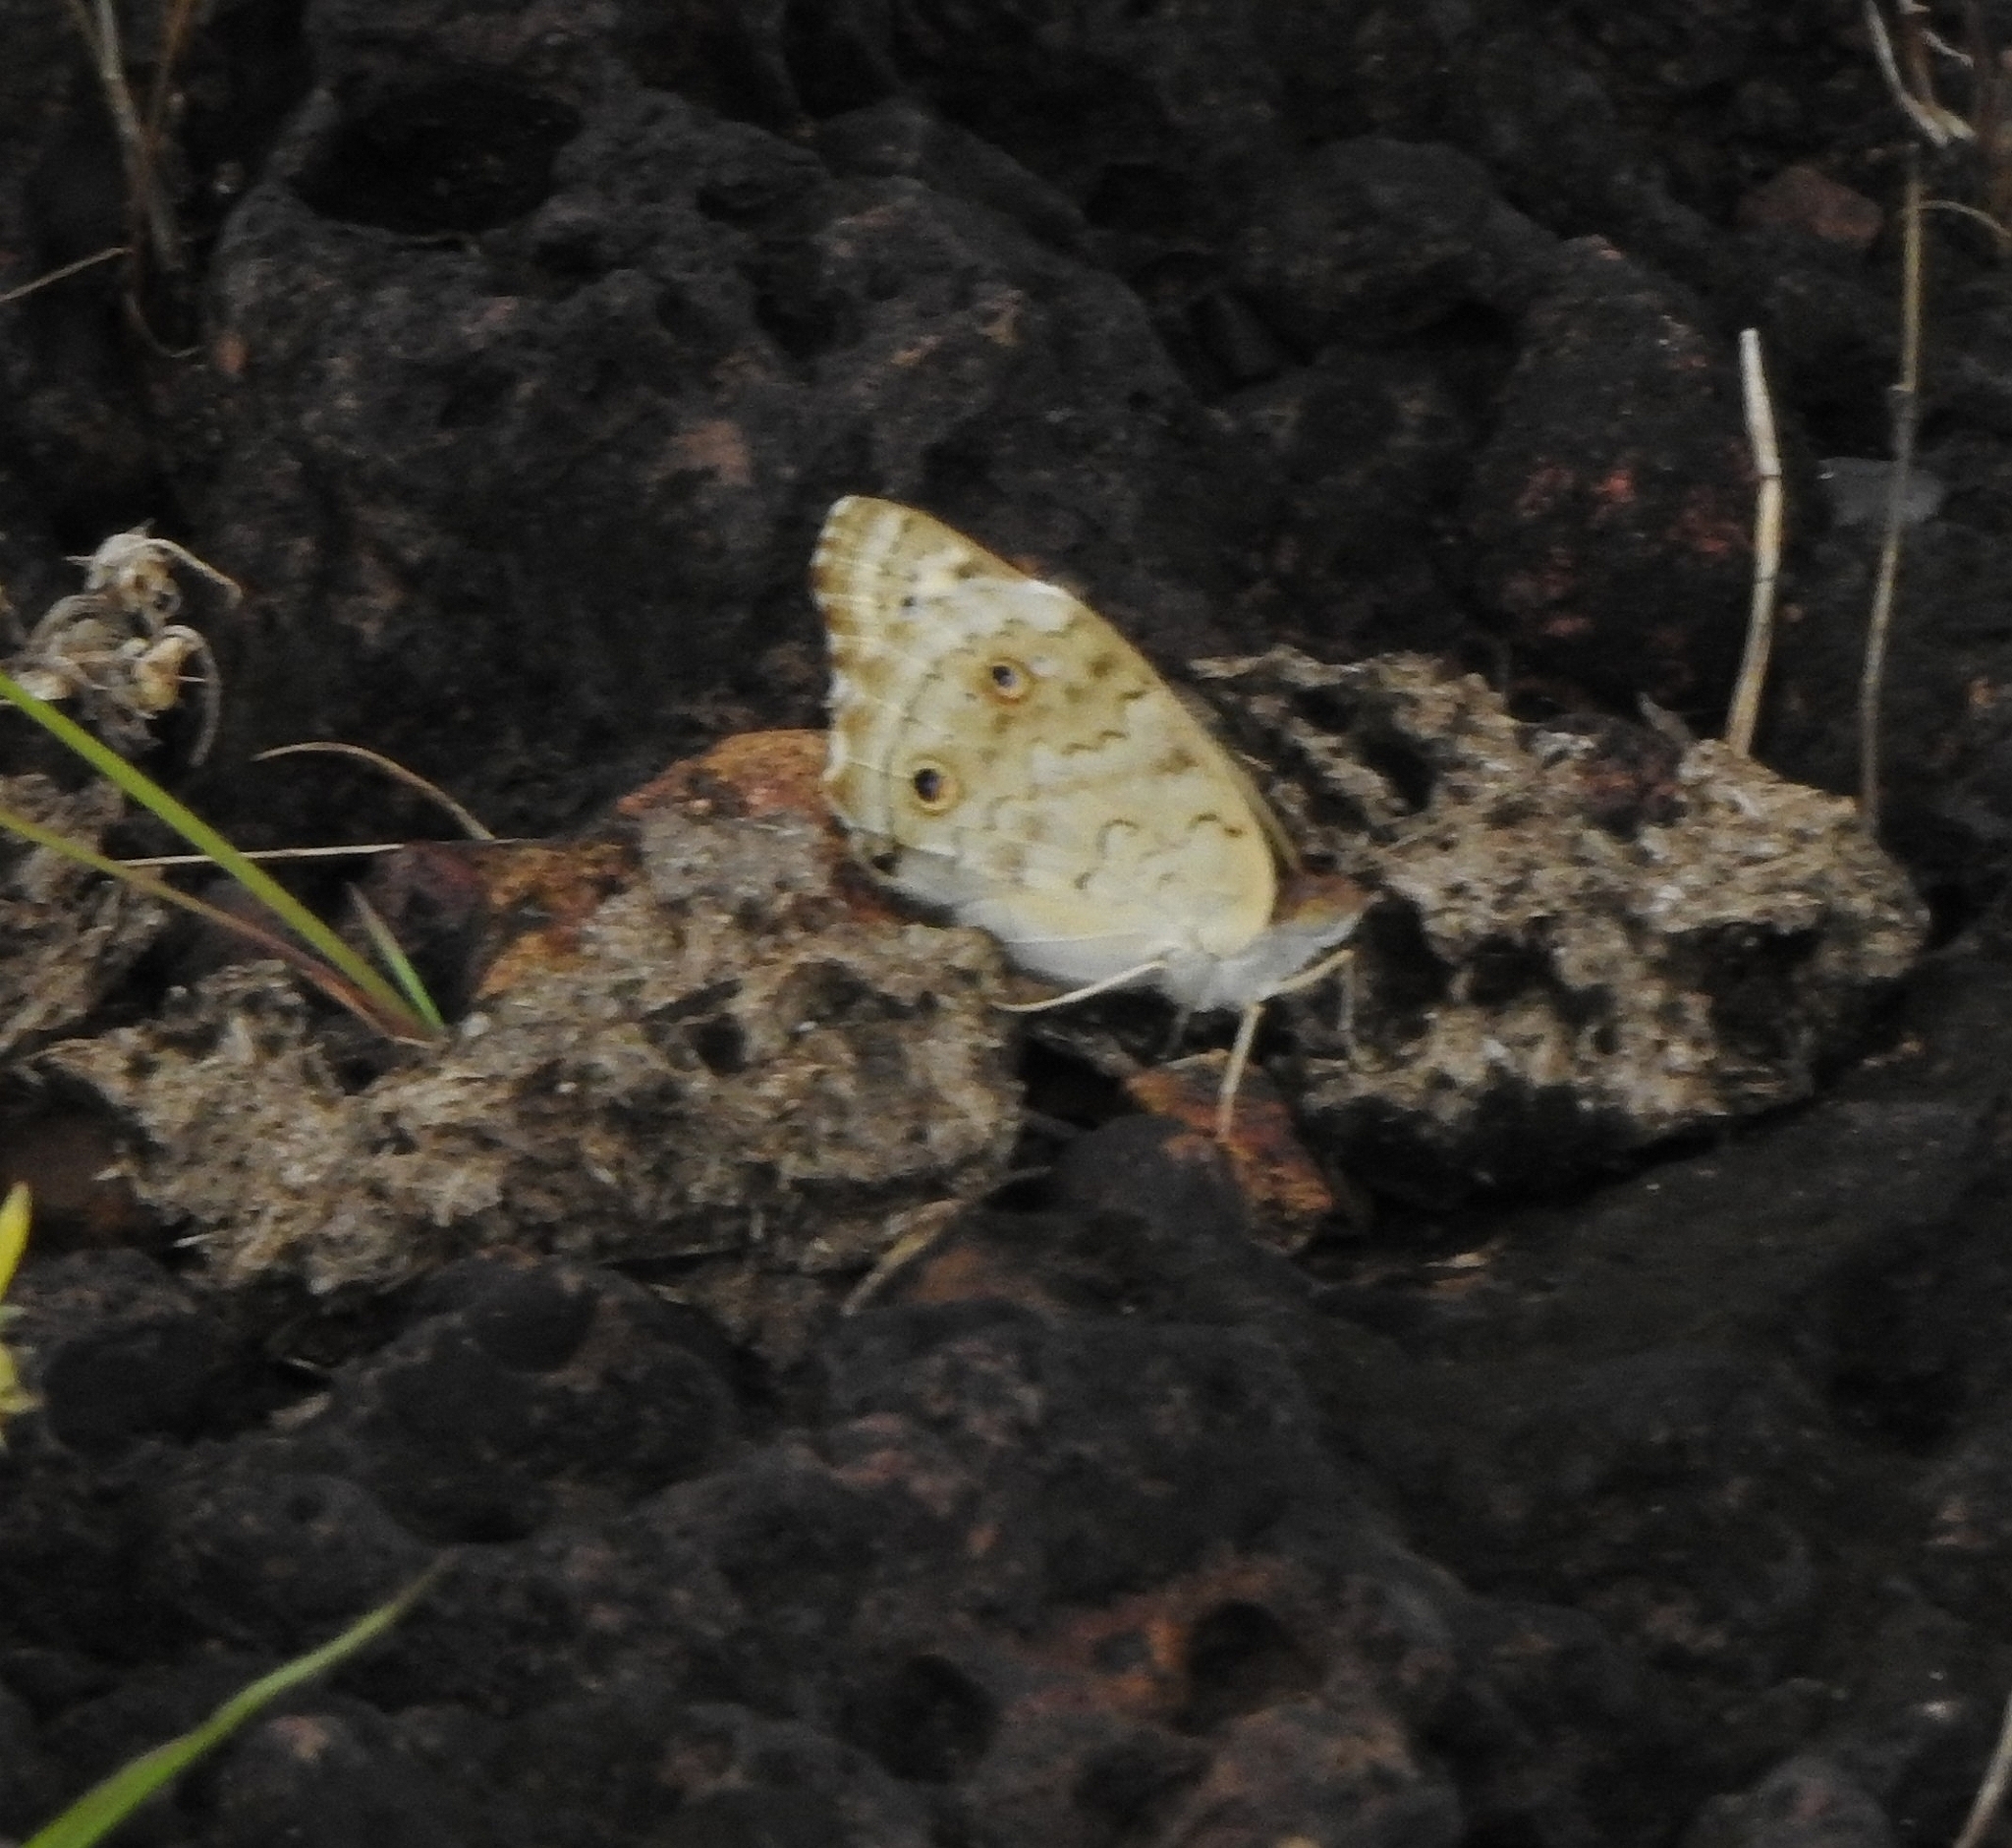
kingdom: Animalia
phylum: Arthropoda
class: Insecta
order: Lepidoptera
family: Nymphalidae
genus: Junonia
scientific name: Junonia orithya
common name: Blue pansy
